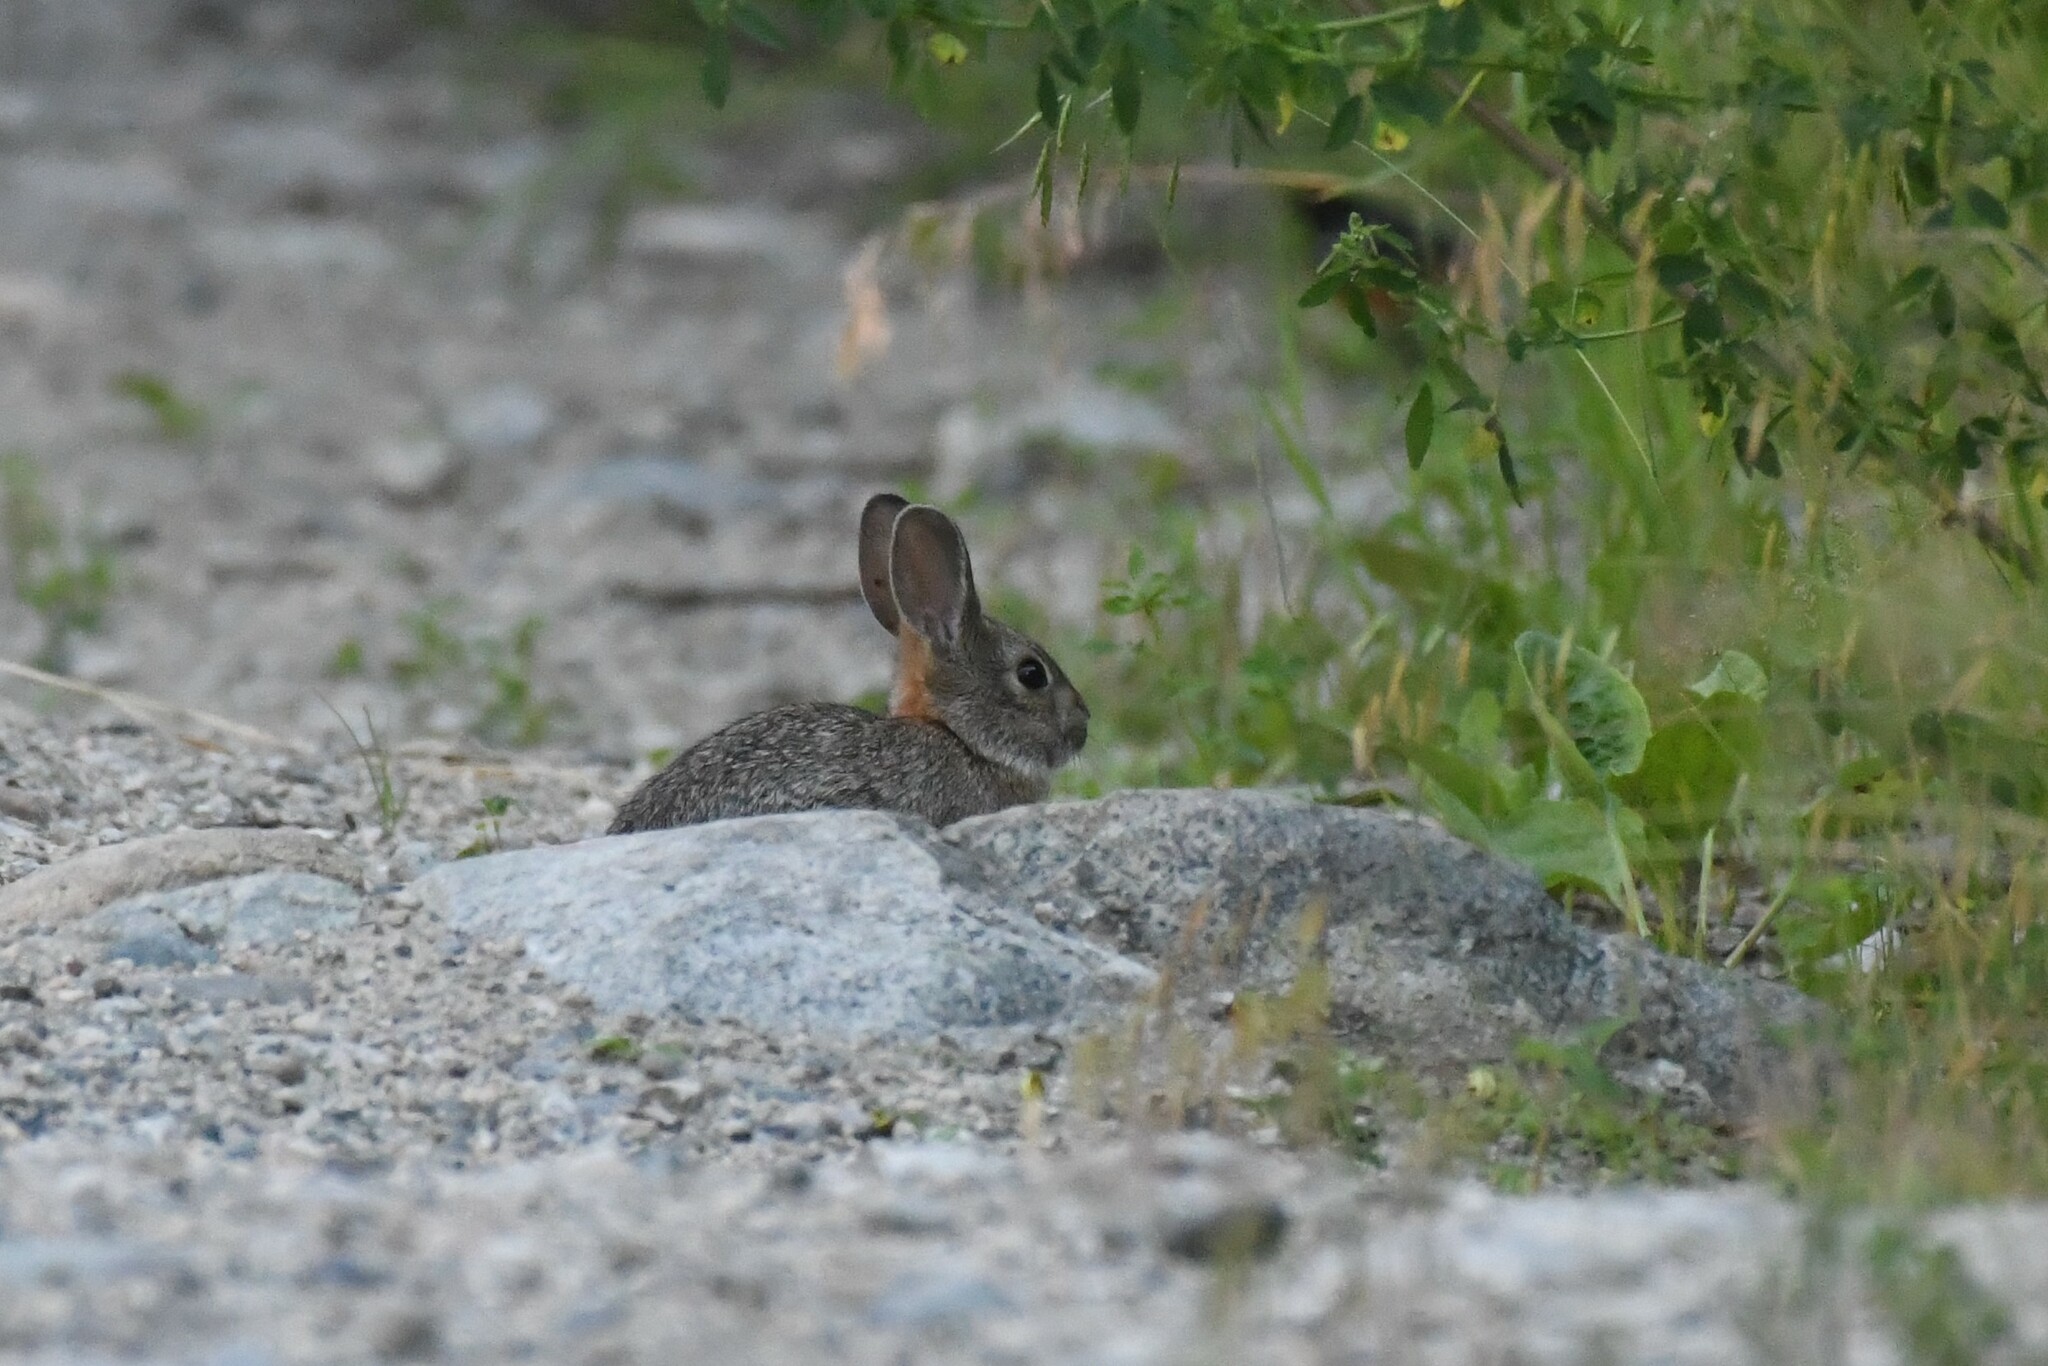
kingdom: Animalia
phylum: Chordata
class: Mammalia
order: Lagomorpha
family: Leporidae
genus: Sylvilagus
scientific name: Sylvilagus nuttallii
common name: Mountain cottontail
